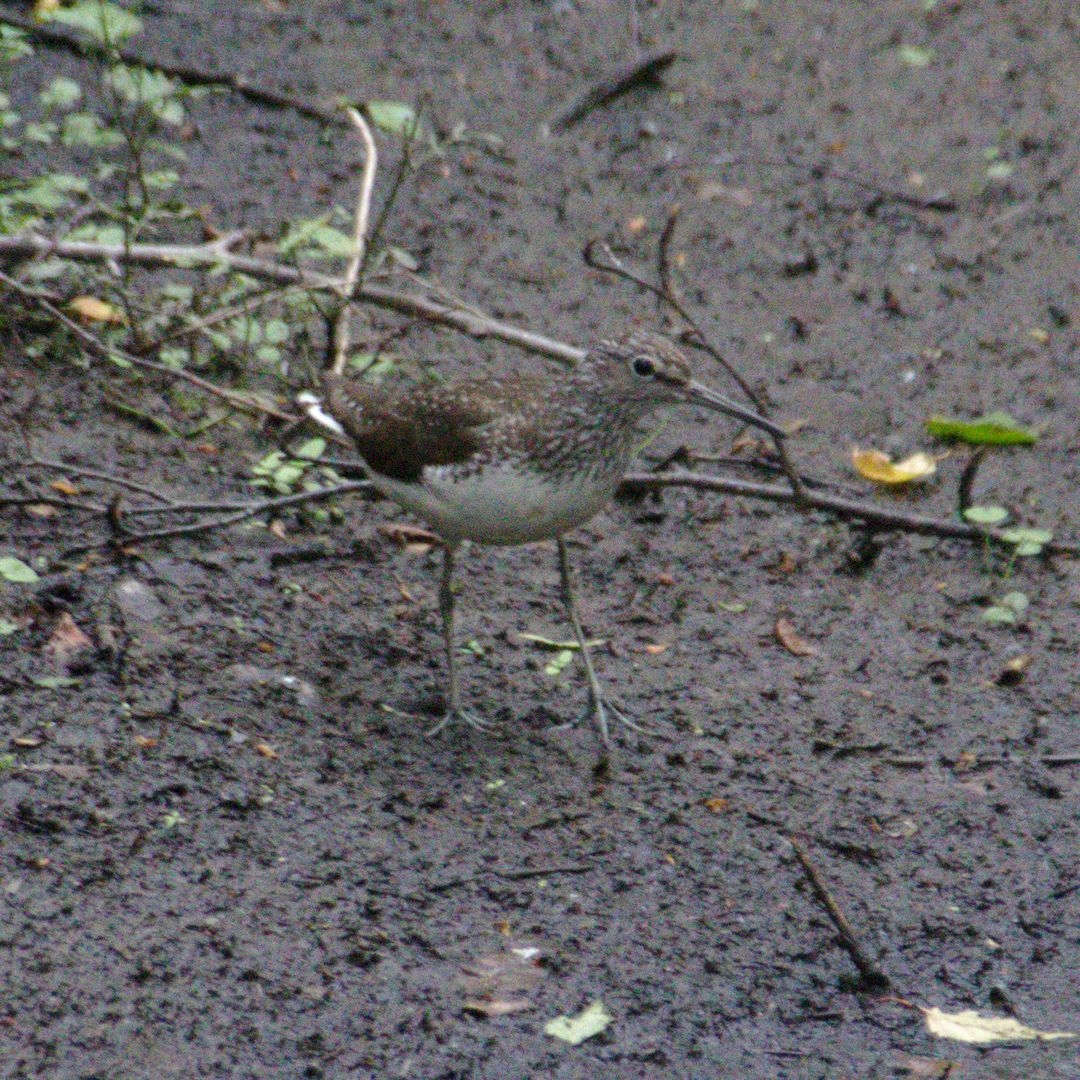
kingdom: Animalia
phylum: Chordata
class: Aves
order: Charadriiformes
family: Scolopacidae
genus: Tringa
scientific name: Tringa ochropus
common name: Green sandpiper
